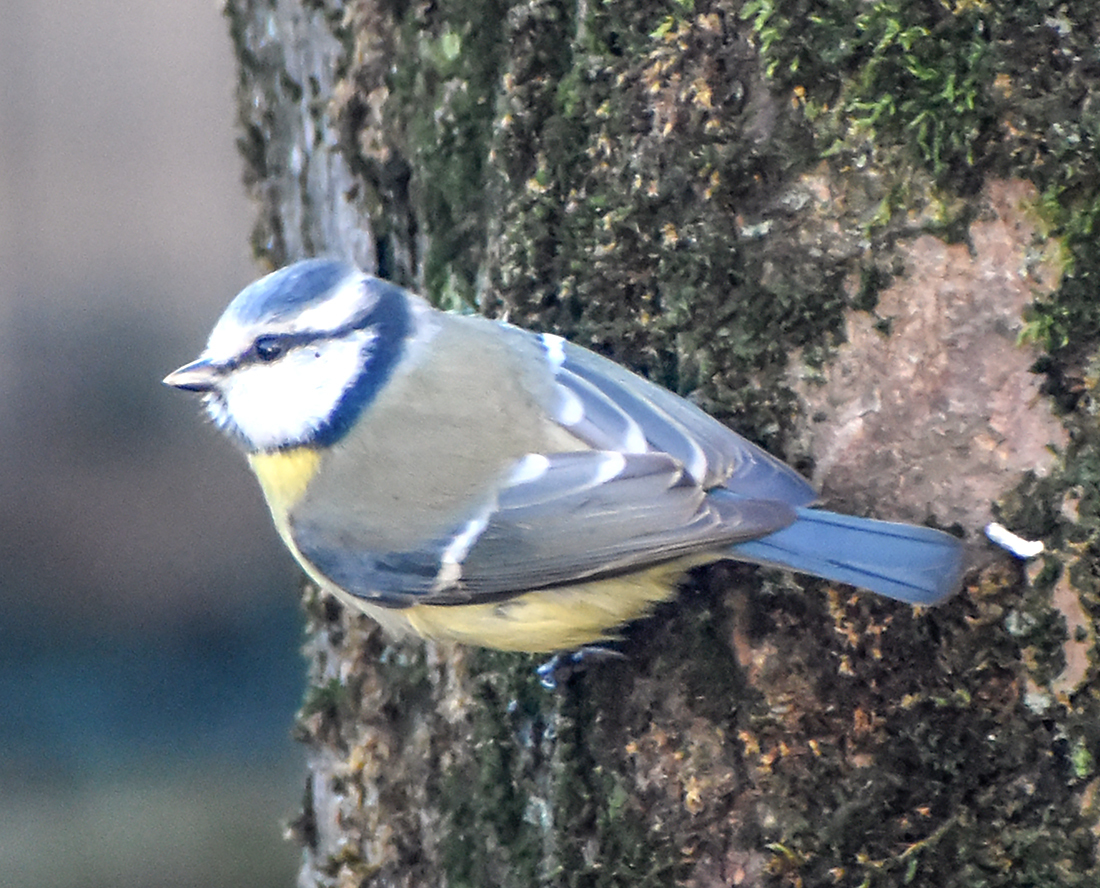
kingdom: Animalia
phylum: Chordata
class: Aves
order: Passeriformes
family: Paridae
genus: Cyanistes
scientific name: Cyanistes caeruleus
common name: Eurasian blue tit
